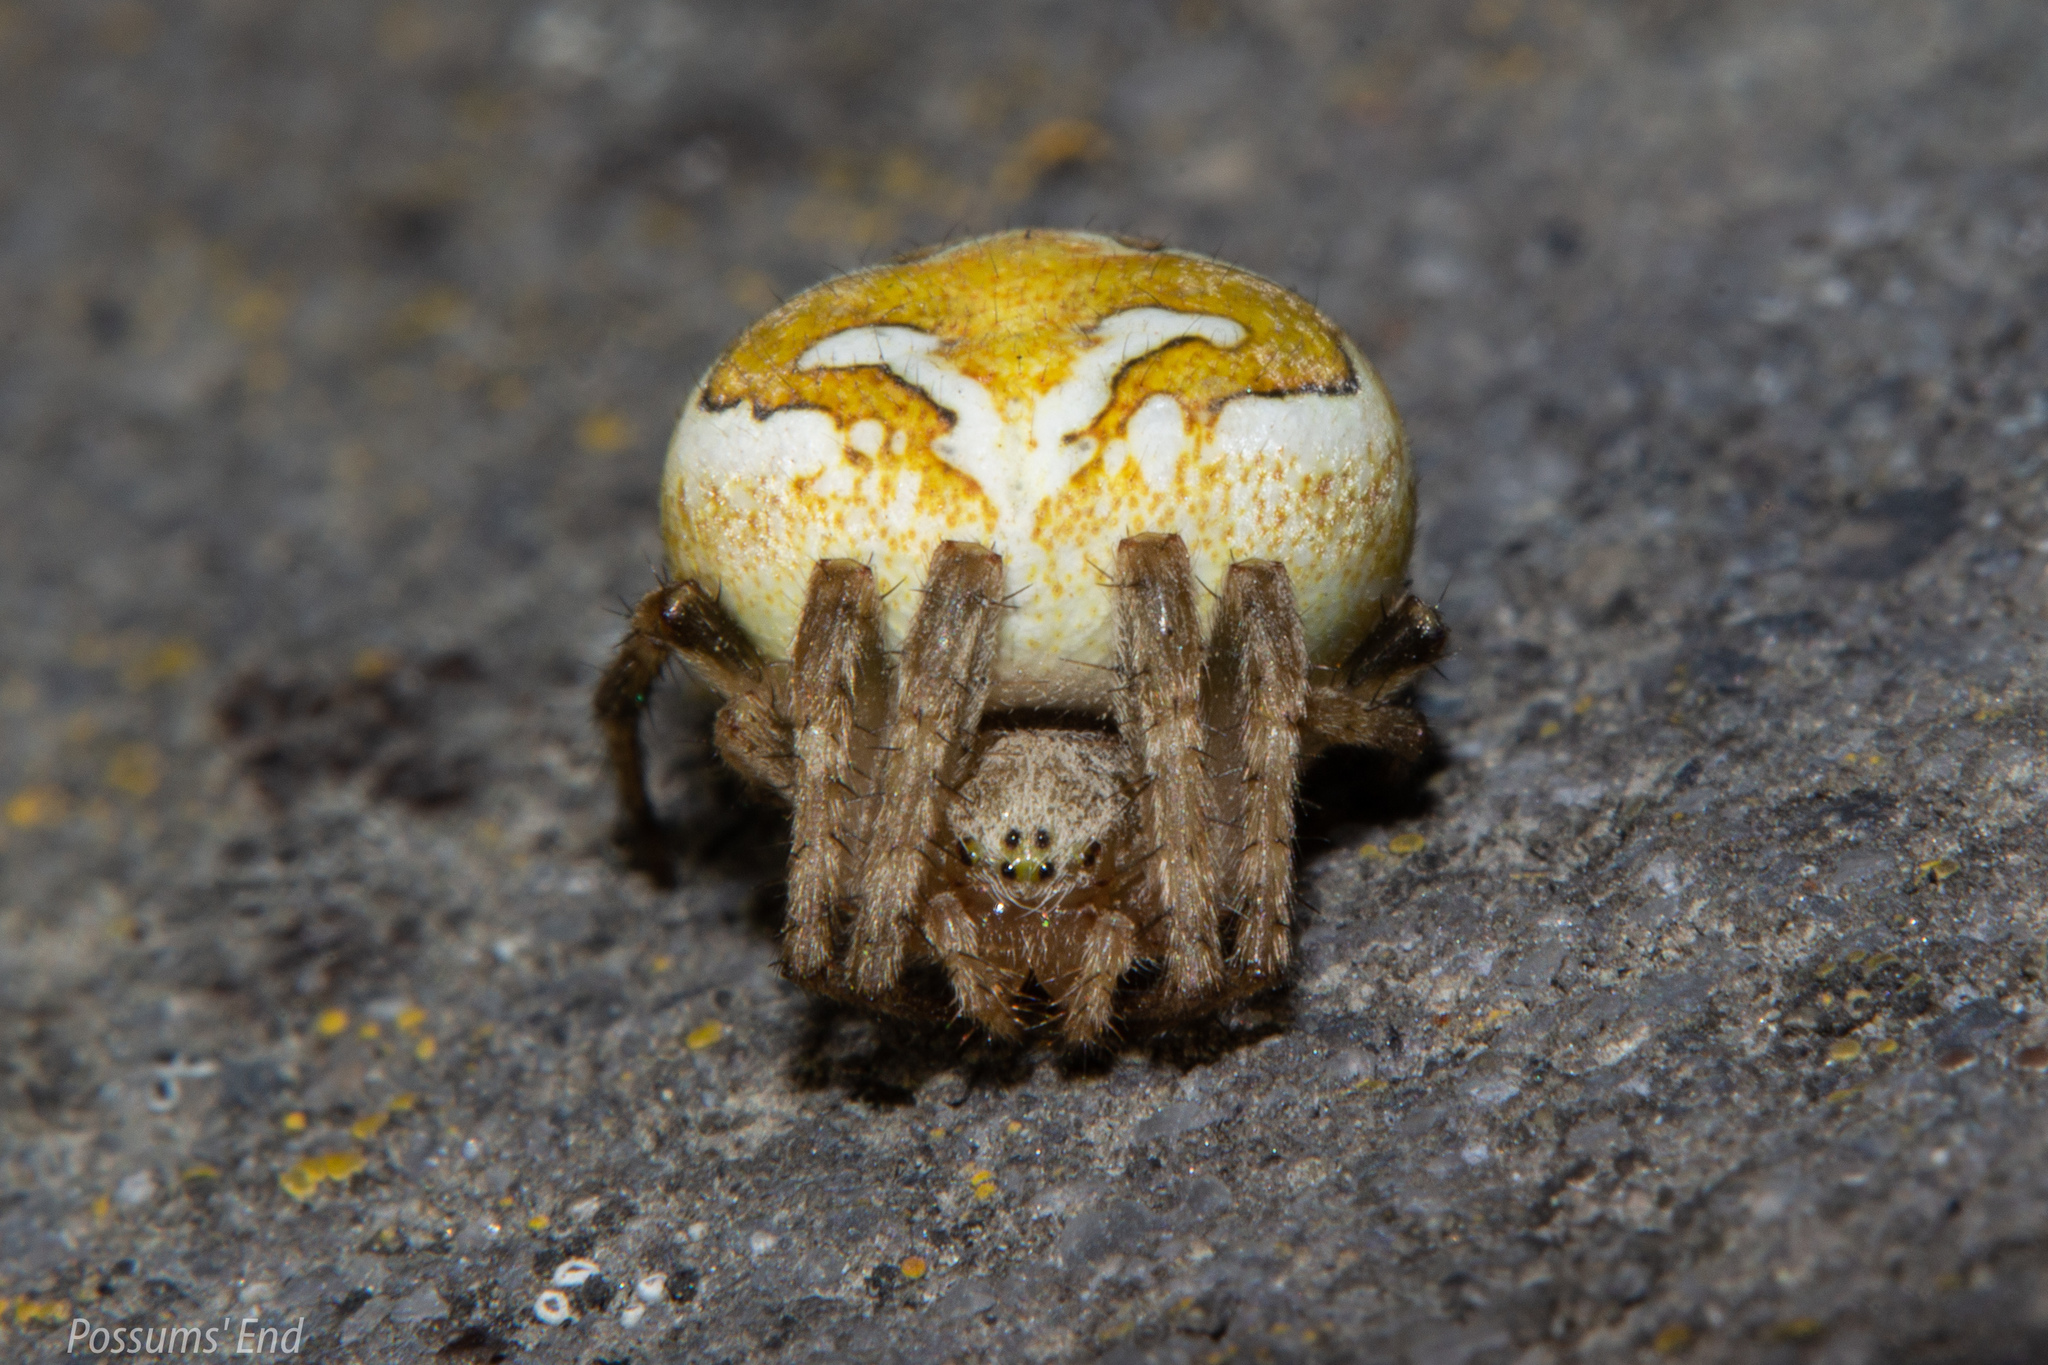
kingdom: Animalia
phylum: Arthropoda
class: Arachnida
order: Araneae
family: Araneidae
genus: Colaranea
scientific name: Colaranea verutum
